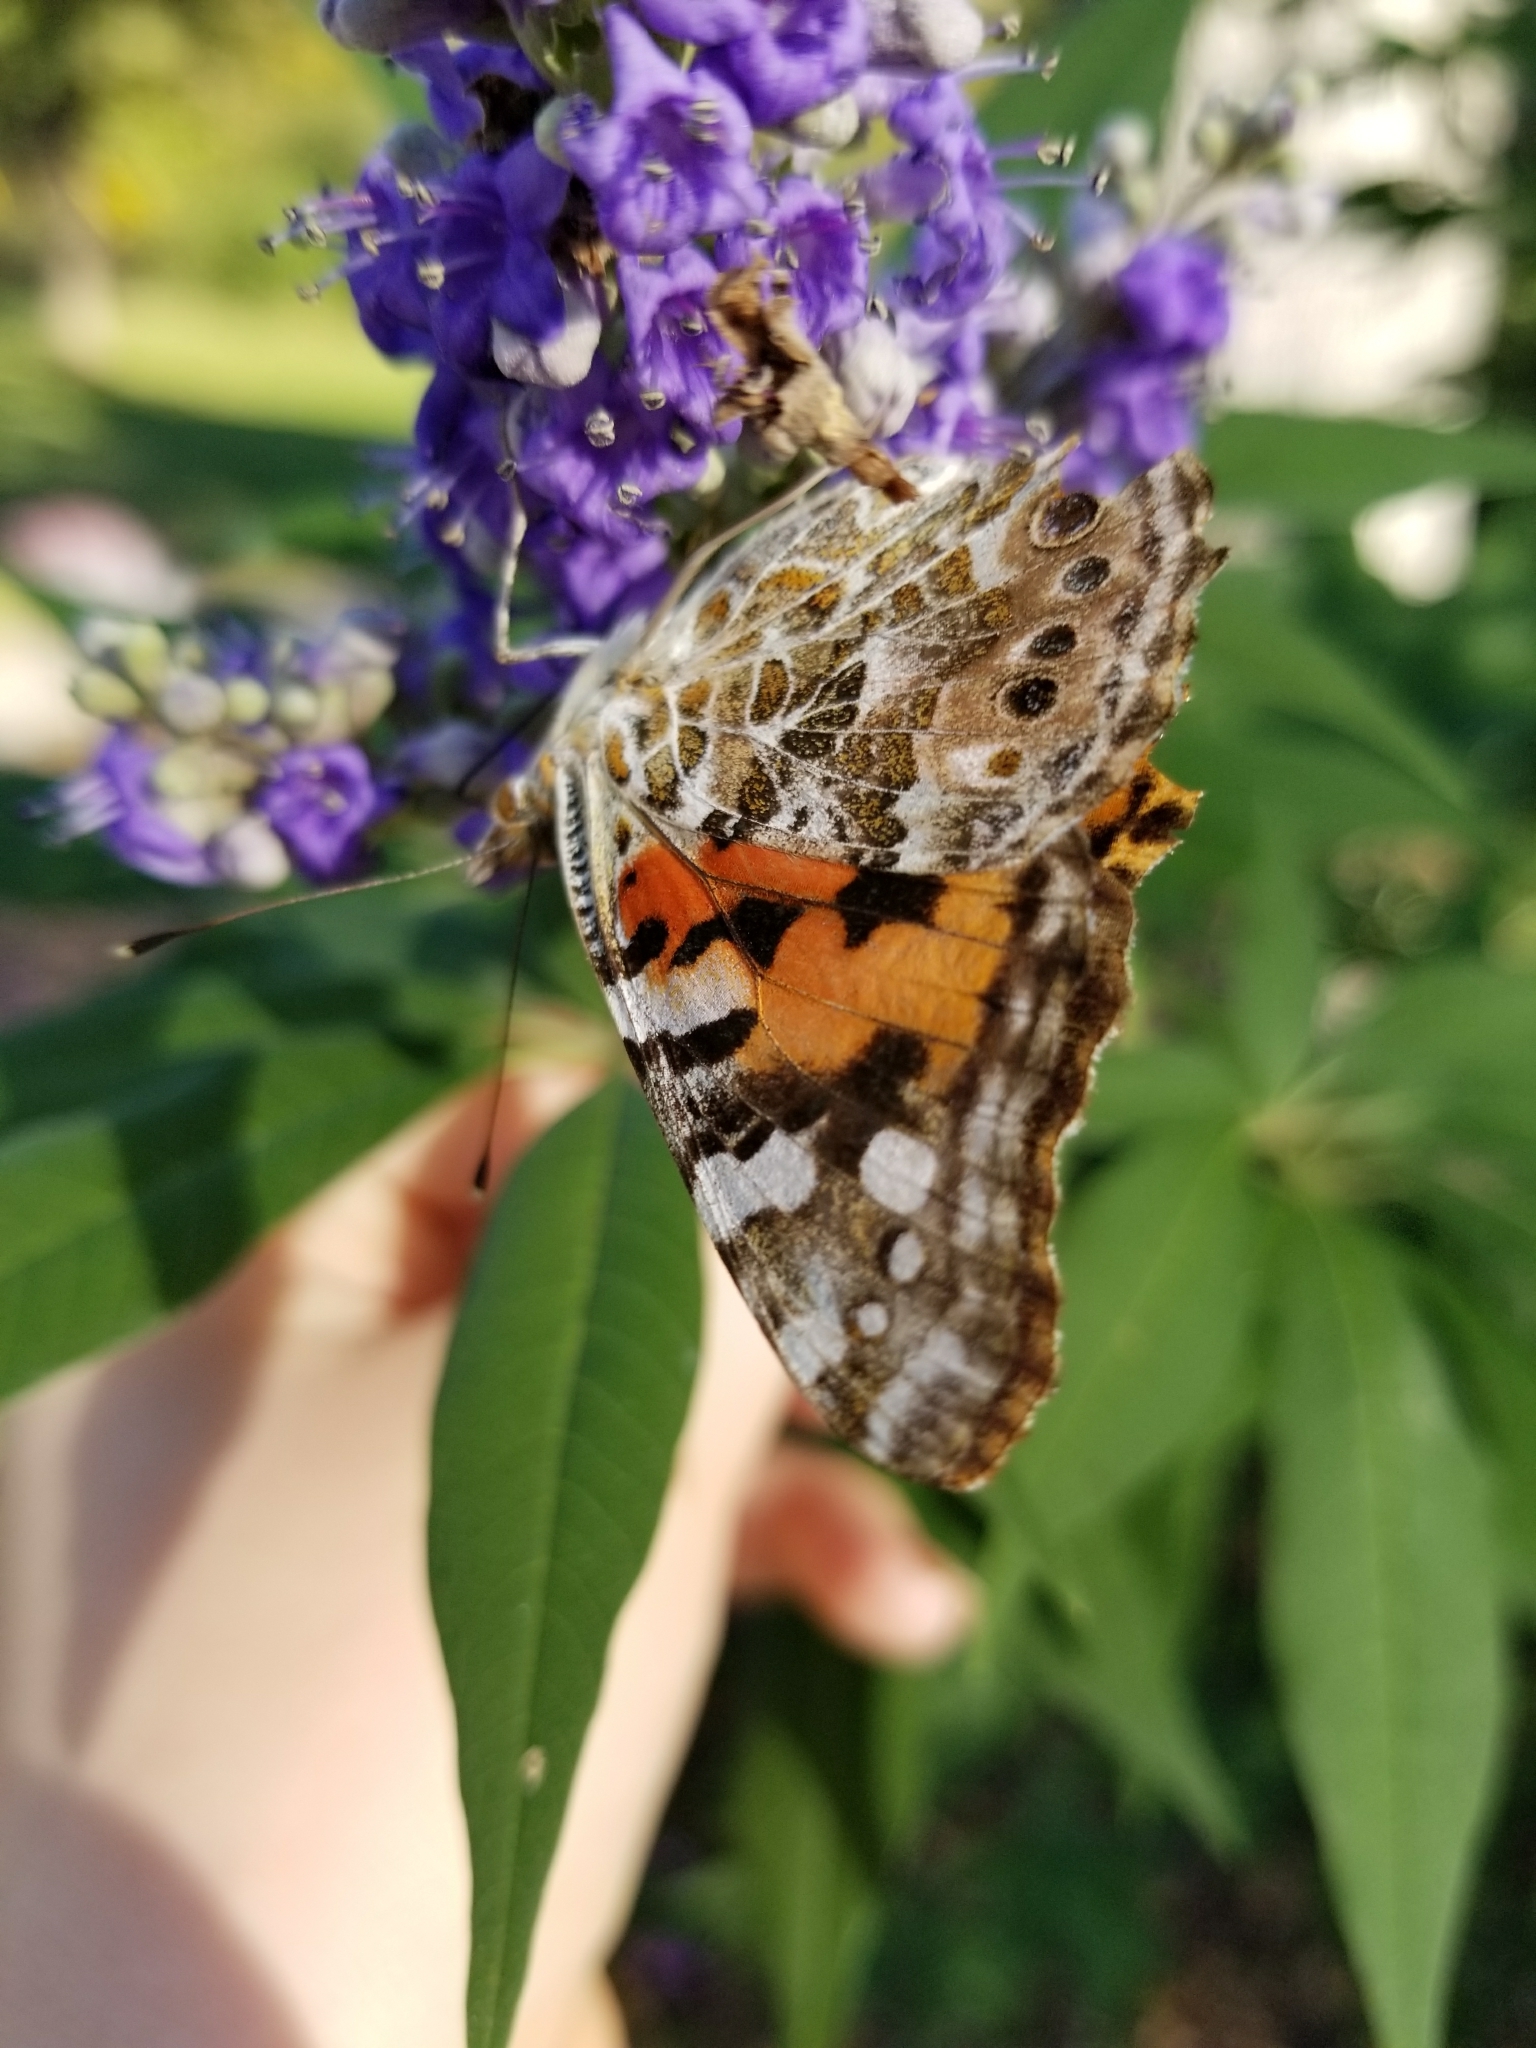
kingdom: Animalia
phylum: Arthropoda
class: Insecta
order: Lepidoptera
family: Nymphalidae
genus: Vanessa
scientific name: Vanessa cardui
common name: Painted lady
